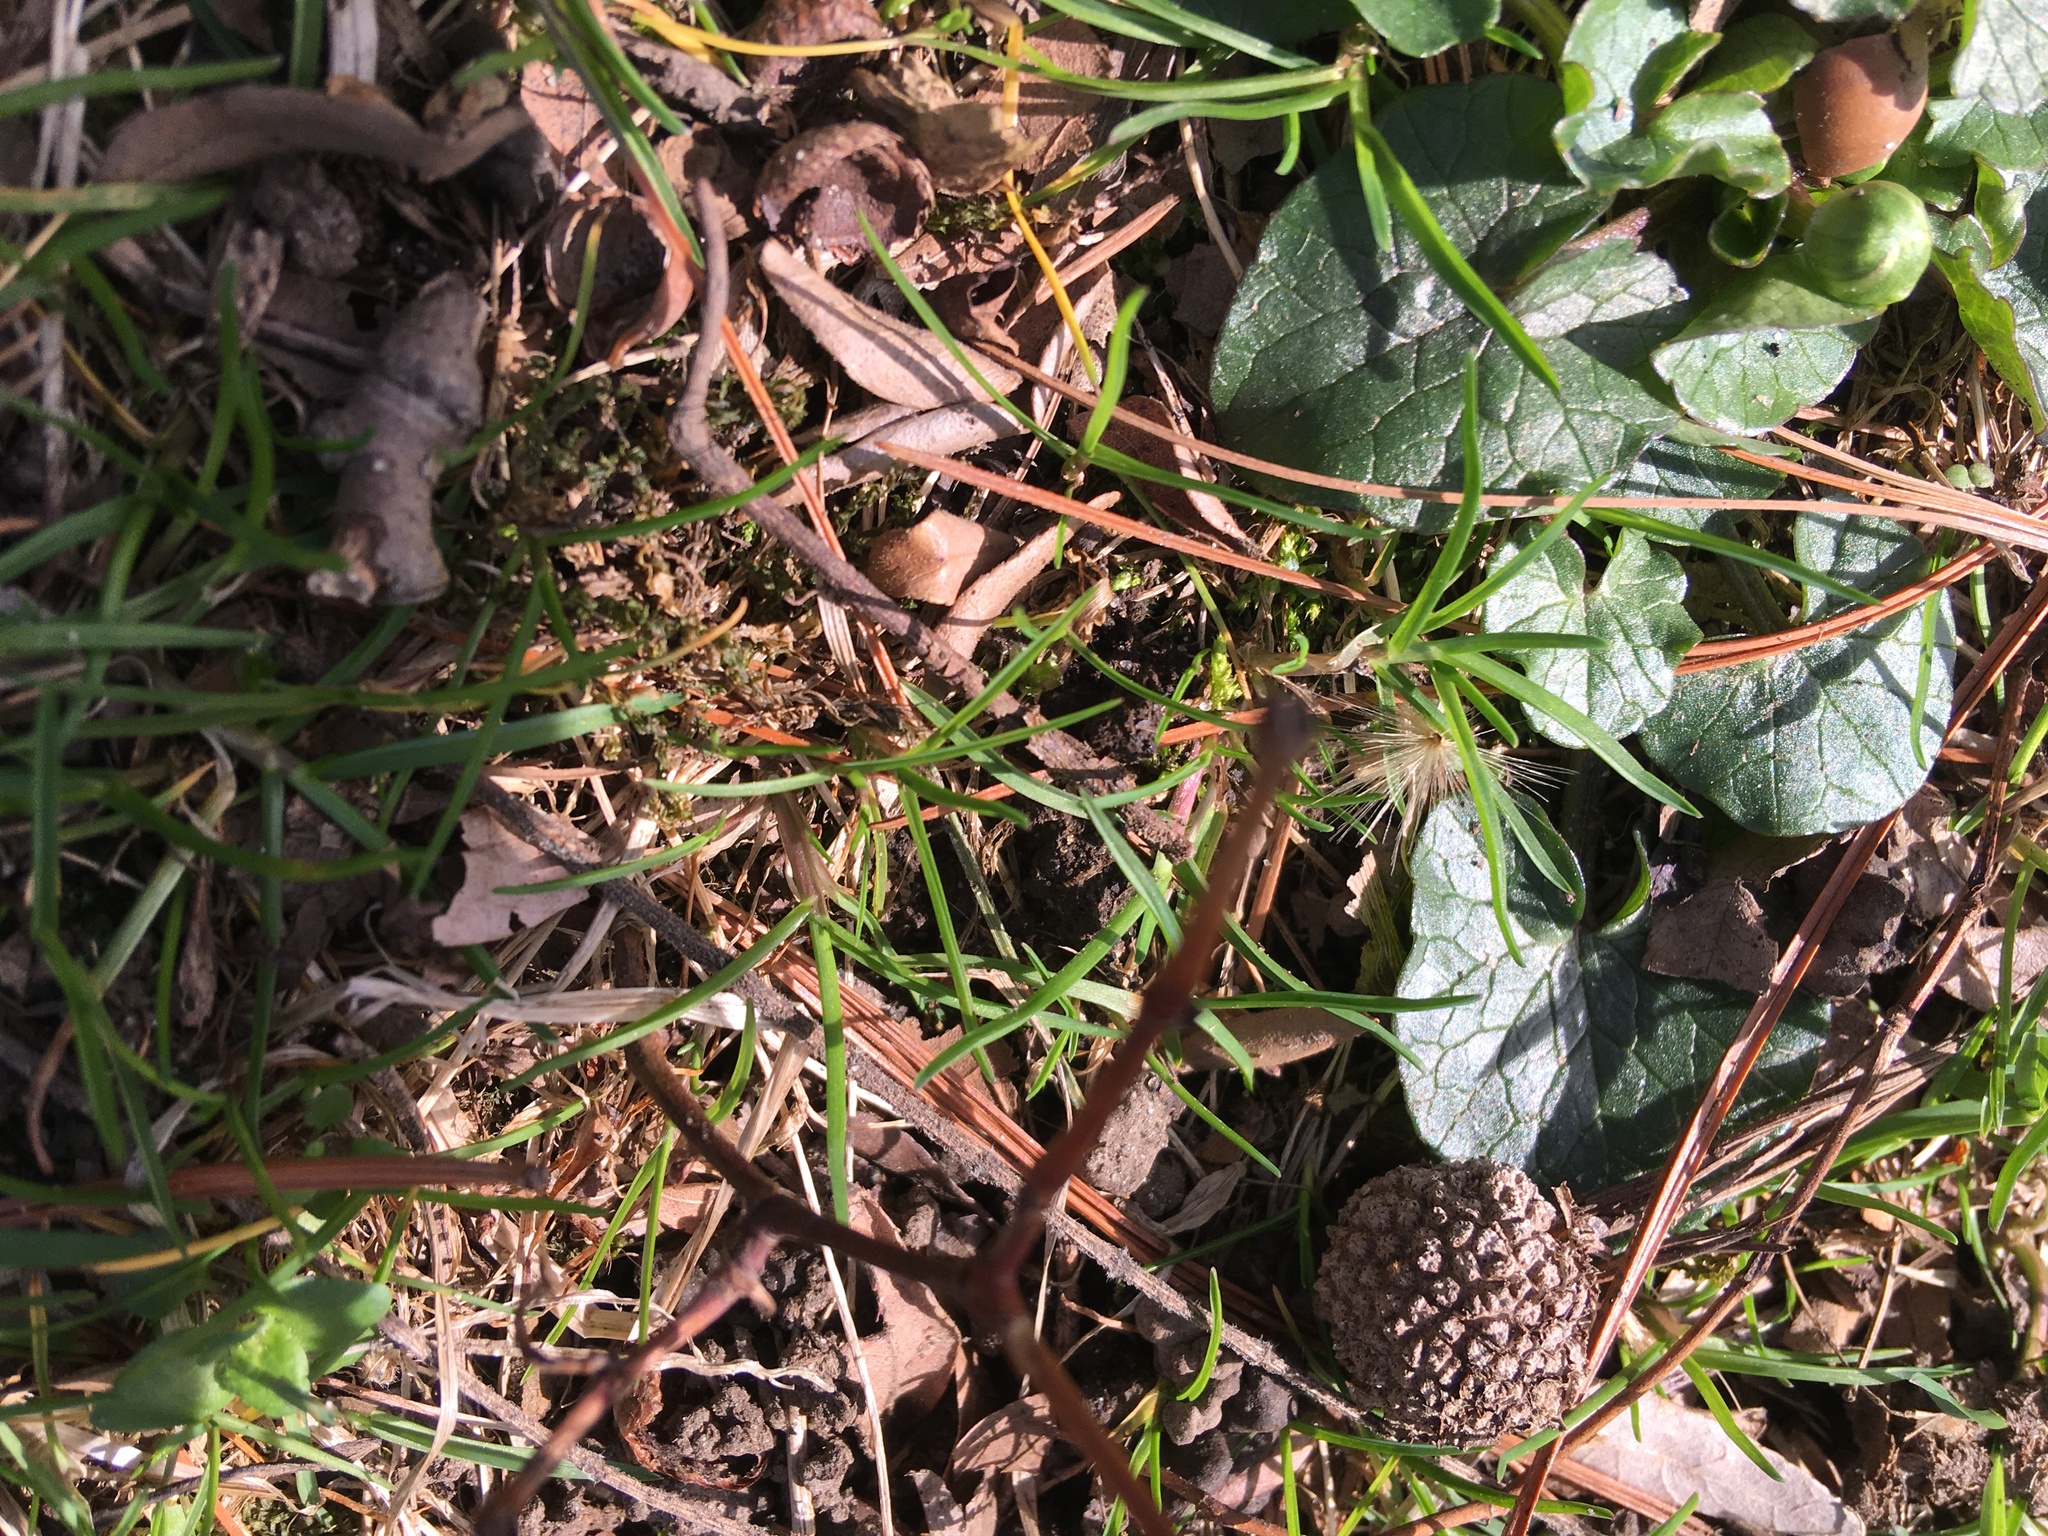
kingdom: Plantae
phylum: Tracheophyta
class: Magnoliopsida
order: Ranunculales
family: Ranunculaceae
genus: Ficaria
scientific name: Ficaria verna
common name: Lesser celandine
